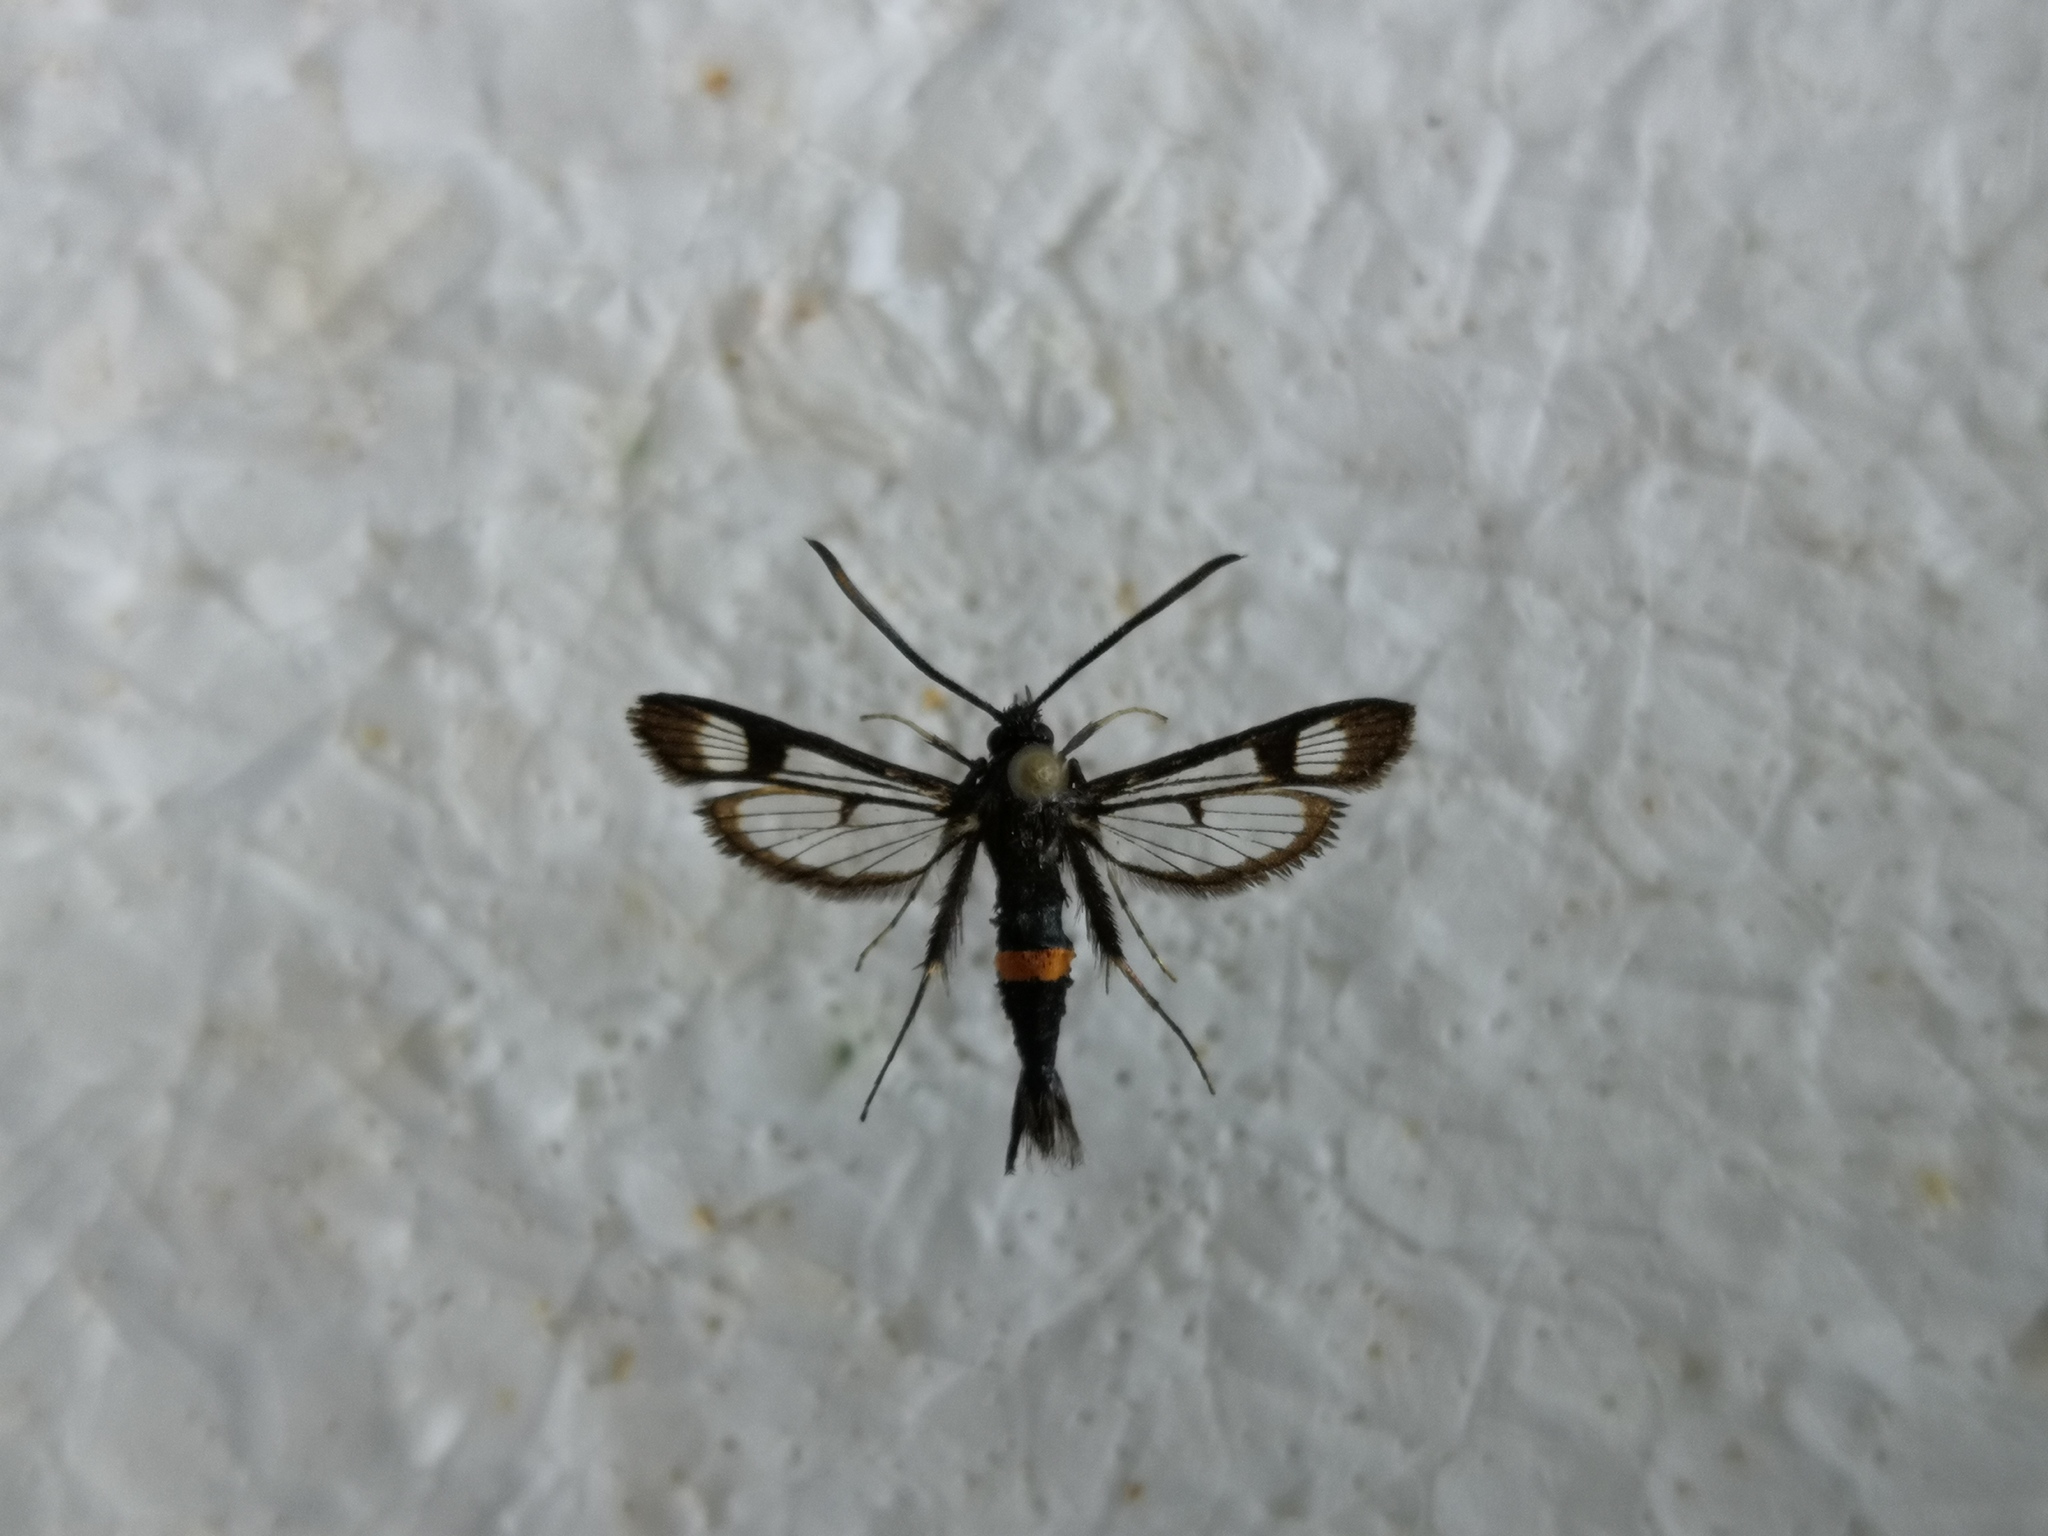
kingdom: Animalia
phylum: Arthropoda
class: Insecta
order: Lepidoptera
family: Sesiidae
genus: Synanthedon
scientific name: Synanthedon myopaeformis
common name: Red-belted clearwing
